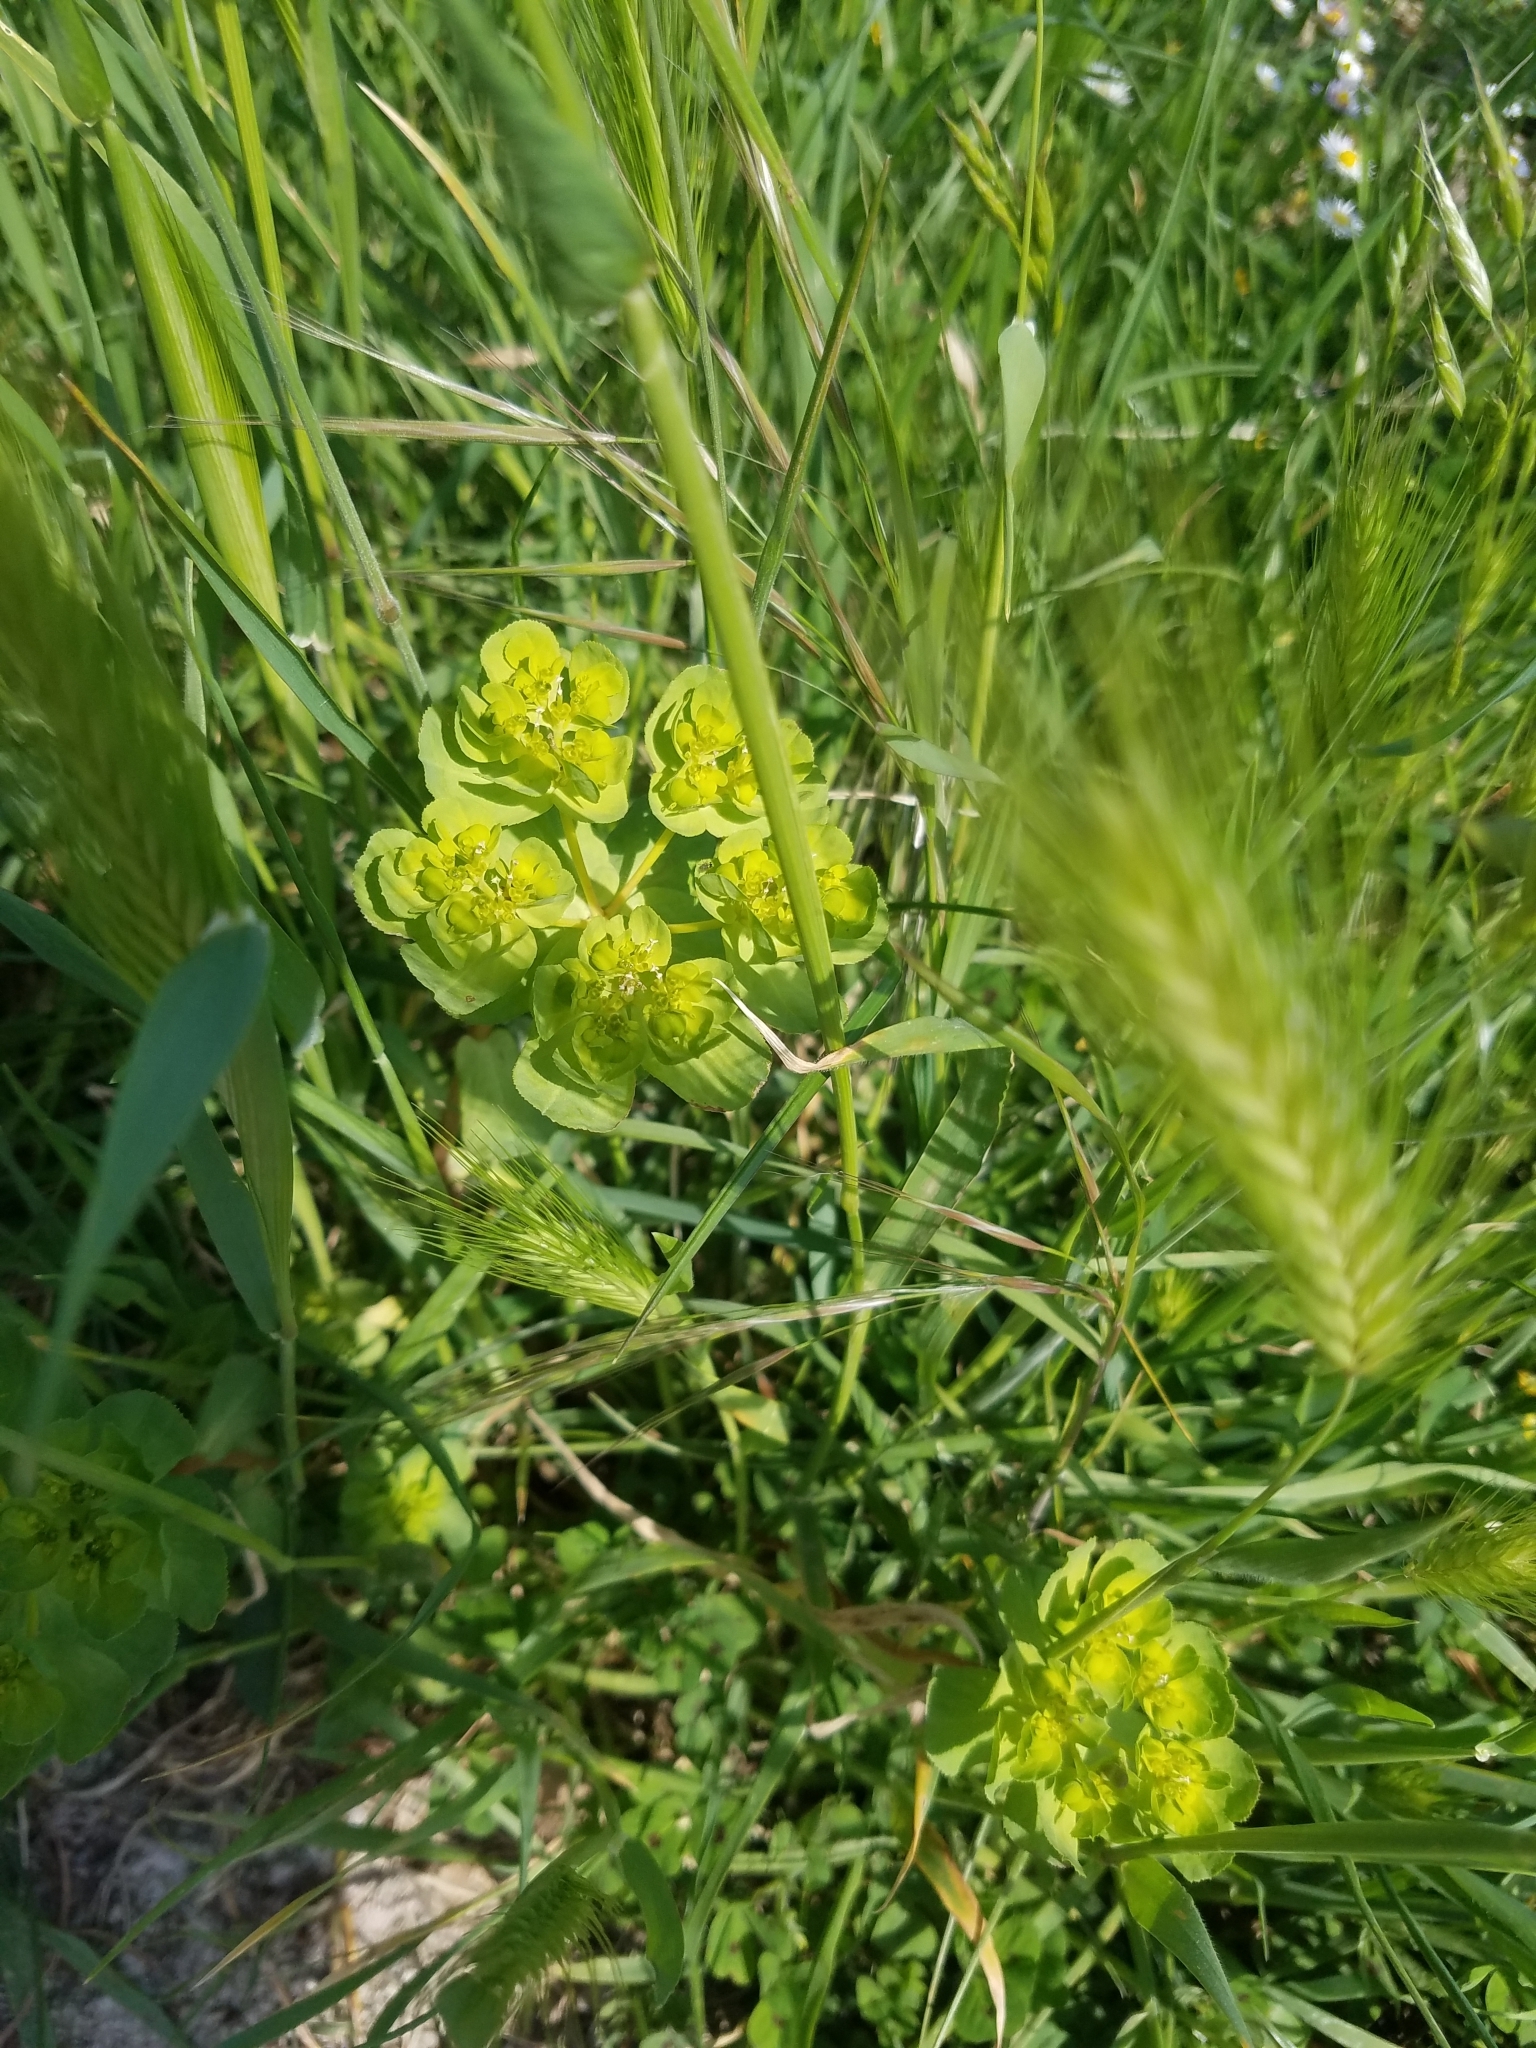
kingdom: Plantae
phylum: Tracheophyta
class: Magnoliopsida
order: Malpighiales
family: Euphorbiaceae
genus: Euphorbia
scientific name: Euphorbia helioscopia
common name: Sun spurge
